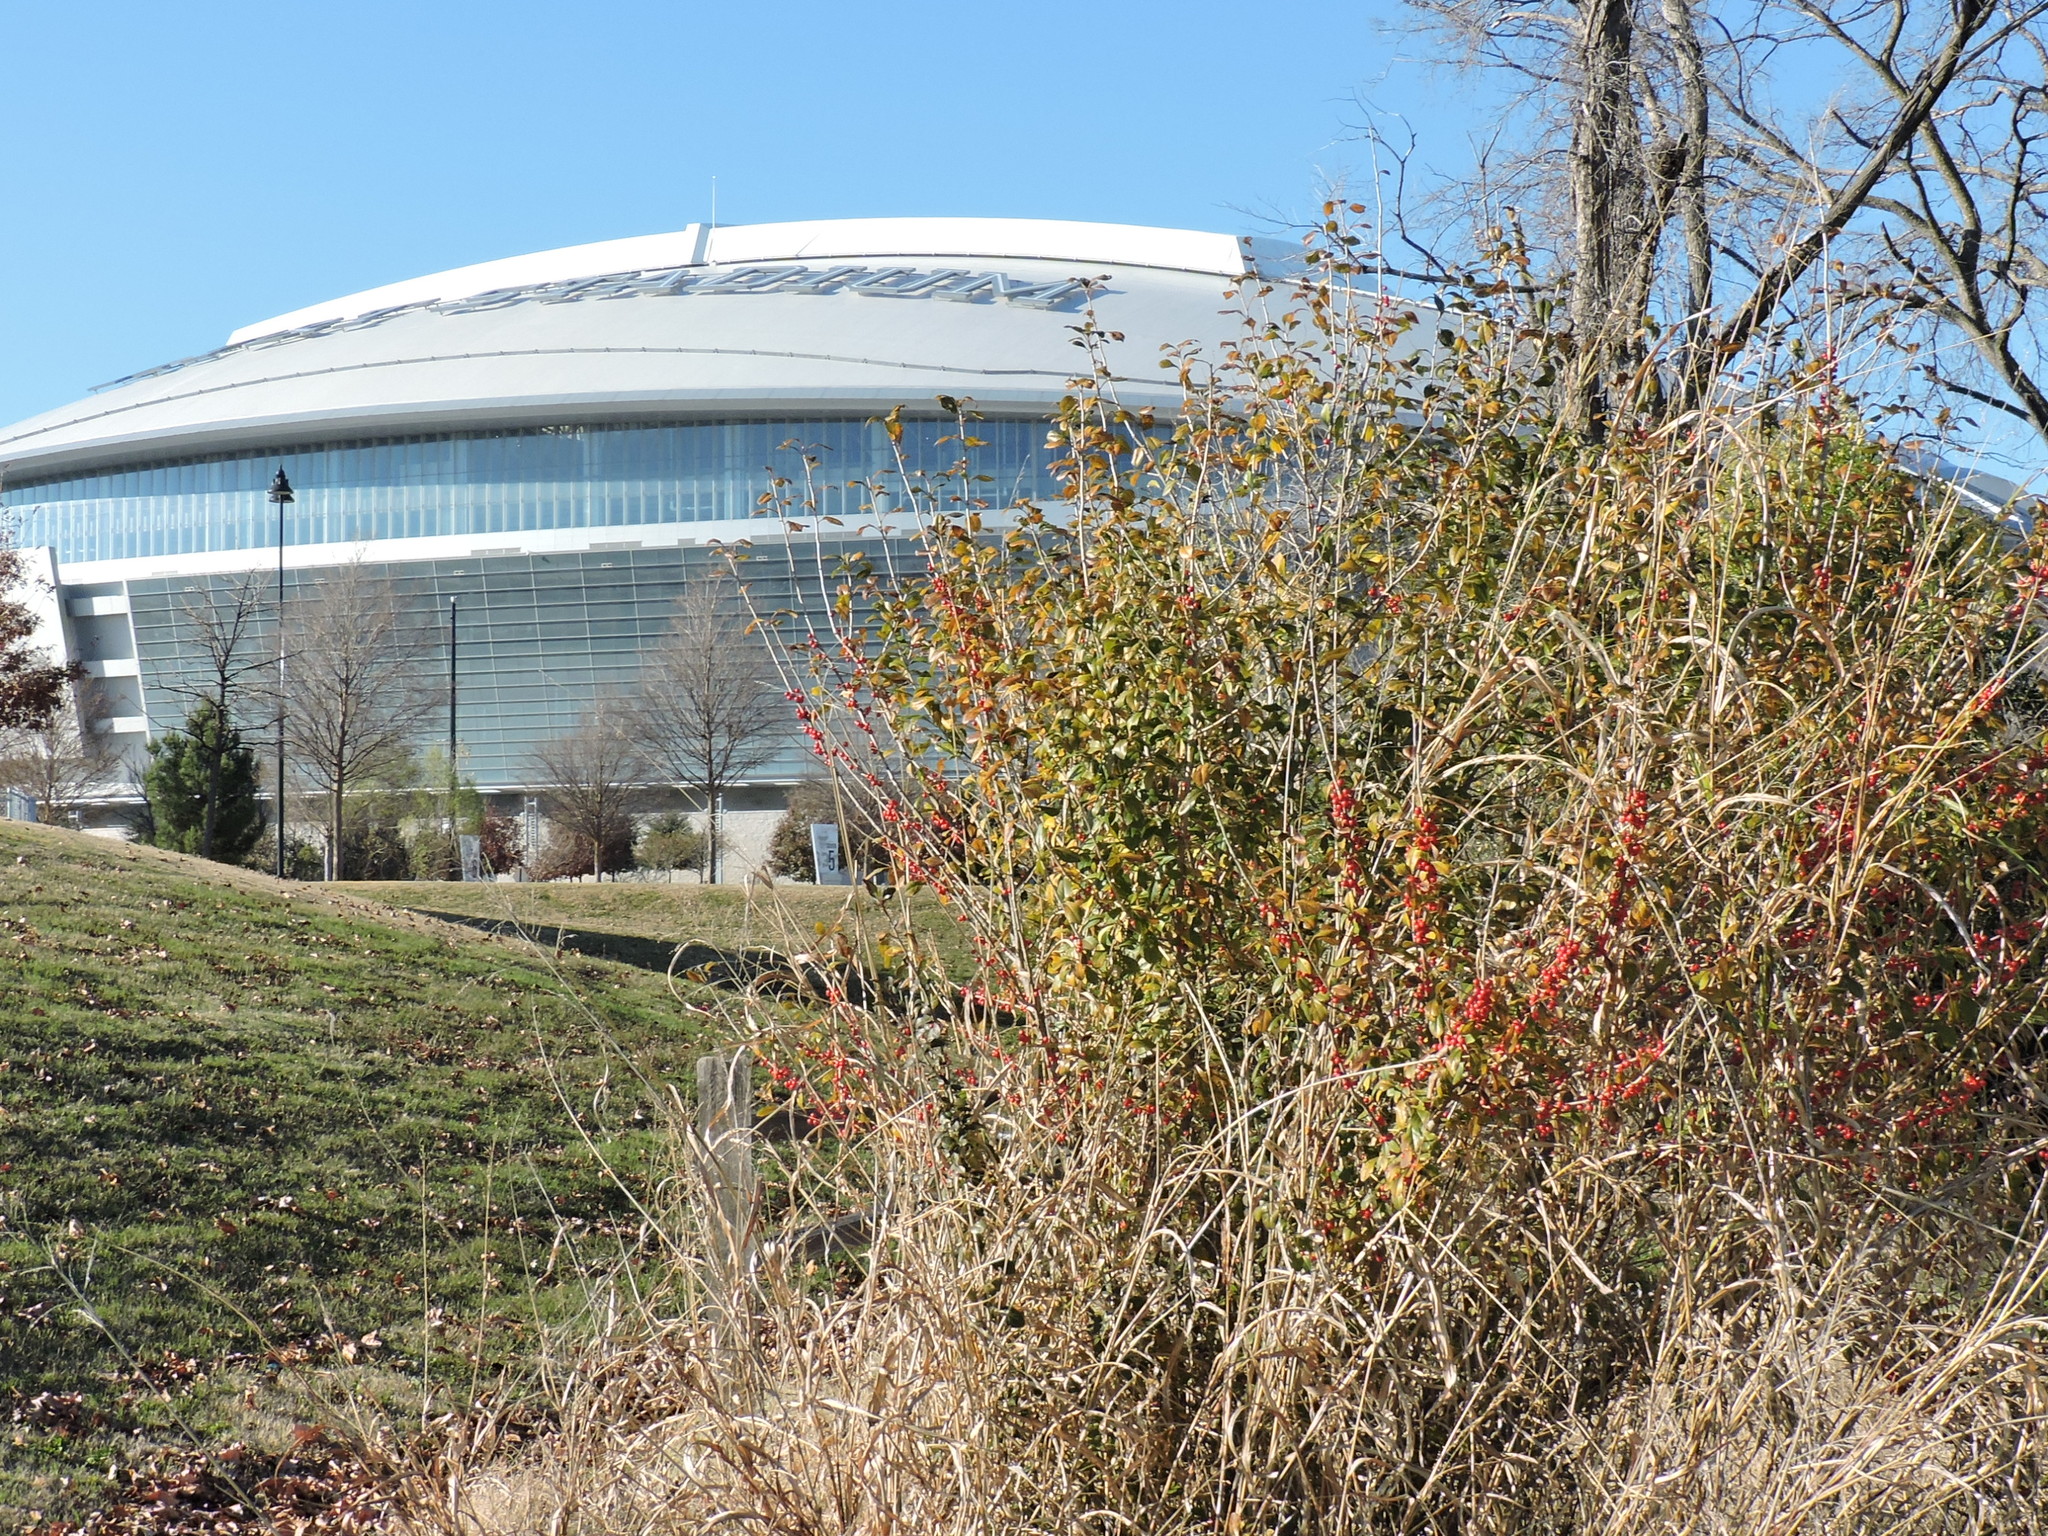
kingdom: Plantae
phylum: Tracheophyta
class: Magnoliopsida
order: Aquifoliales
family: Aquifoliaceae
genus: Ilex
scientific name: Ilex decidua
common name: Possum-haw
